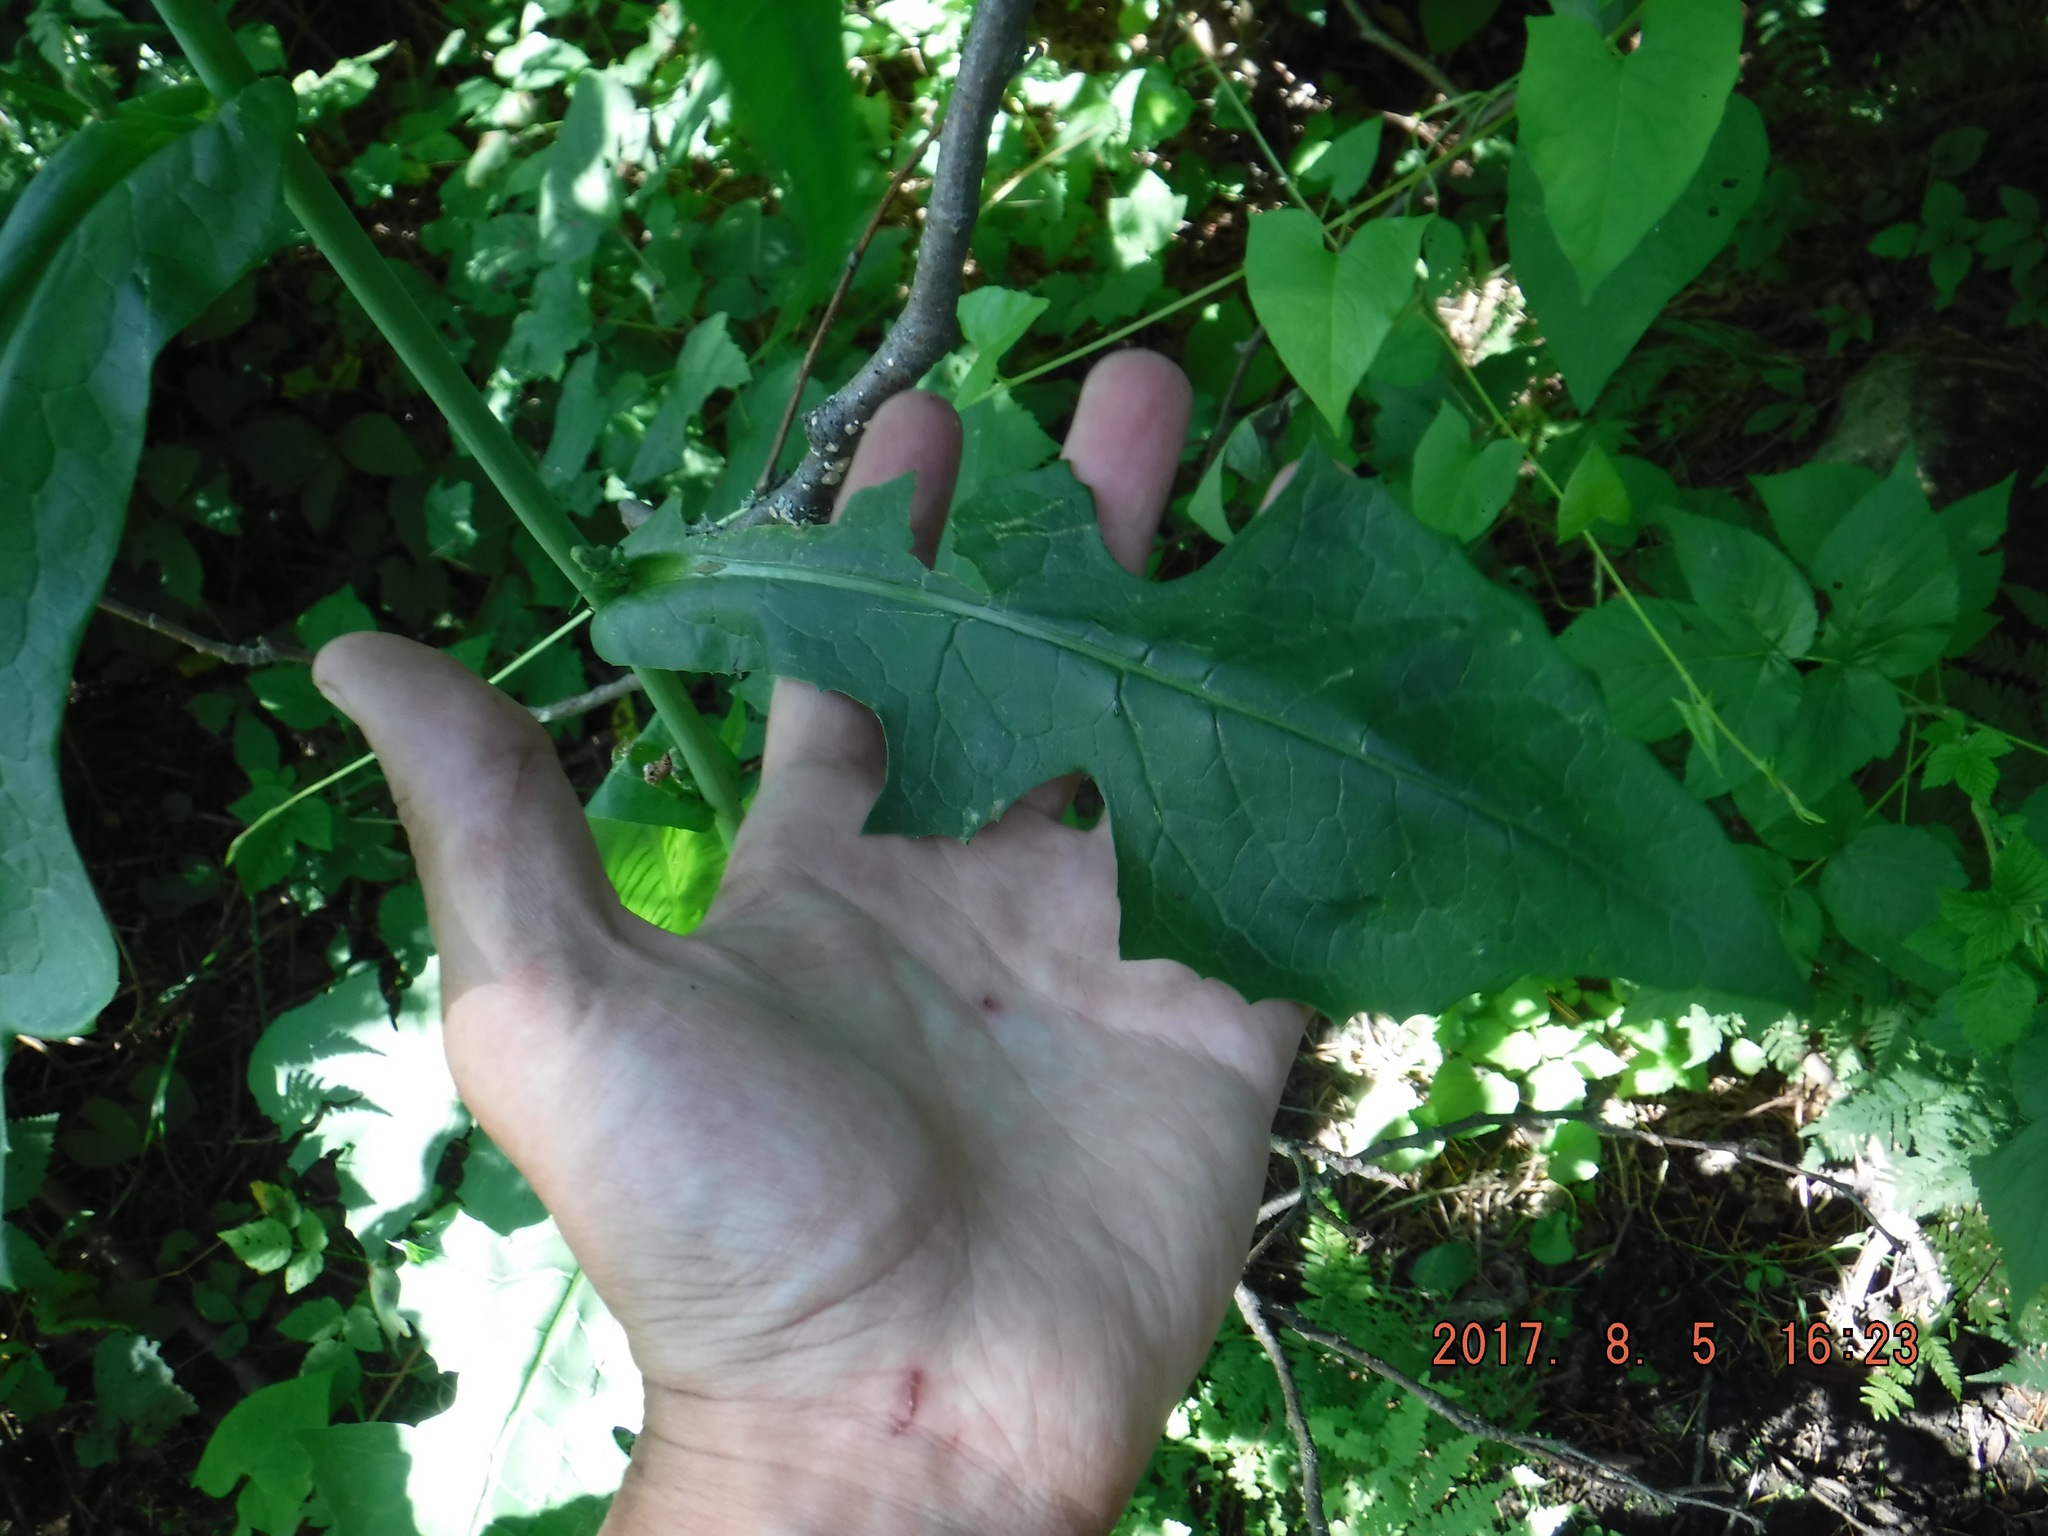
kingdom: Plantae
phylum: Tracheophyta
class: Magnoliopsida
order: Asterales
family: Asteraceae
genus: Lactuca
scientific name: Lactuca biennis
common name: Blue wood lettuce
